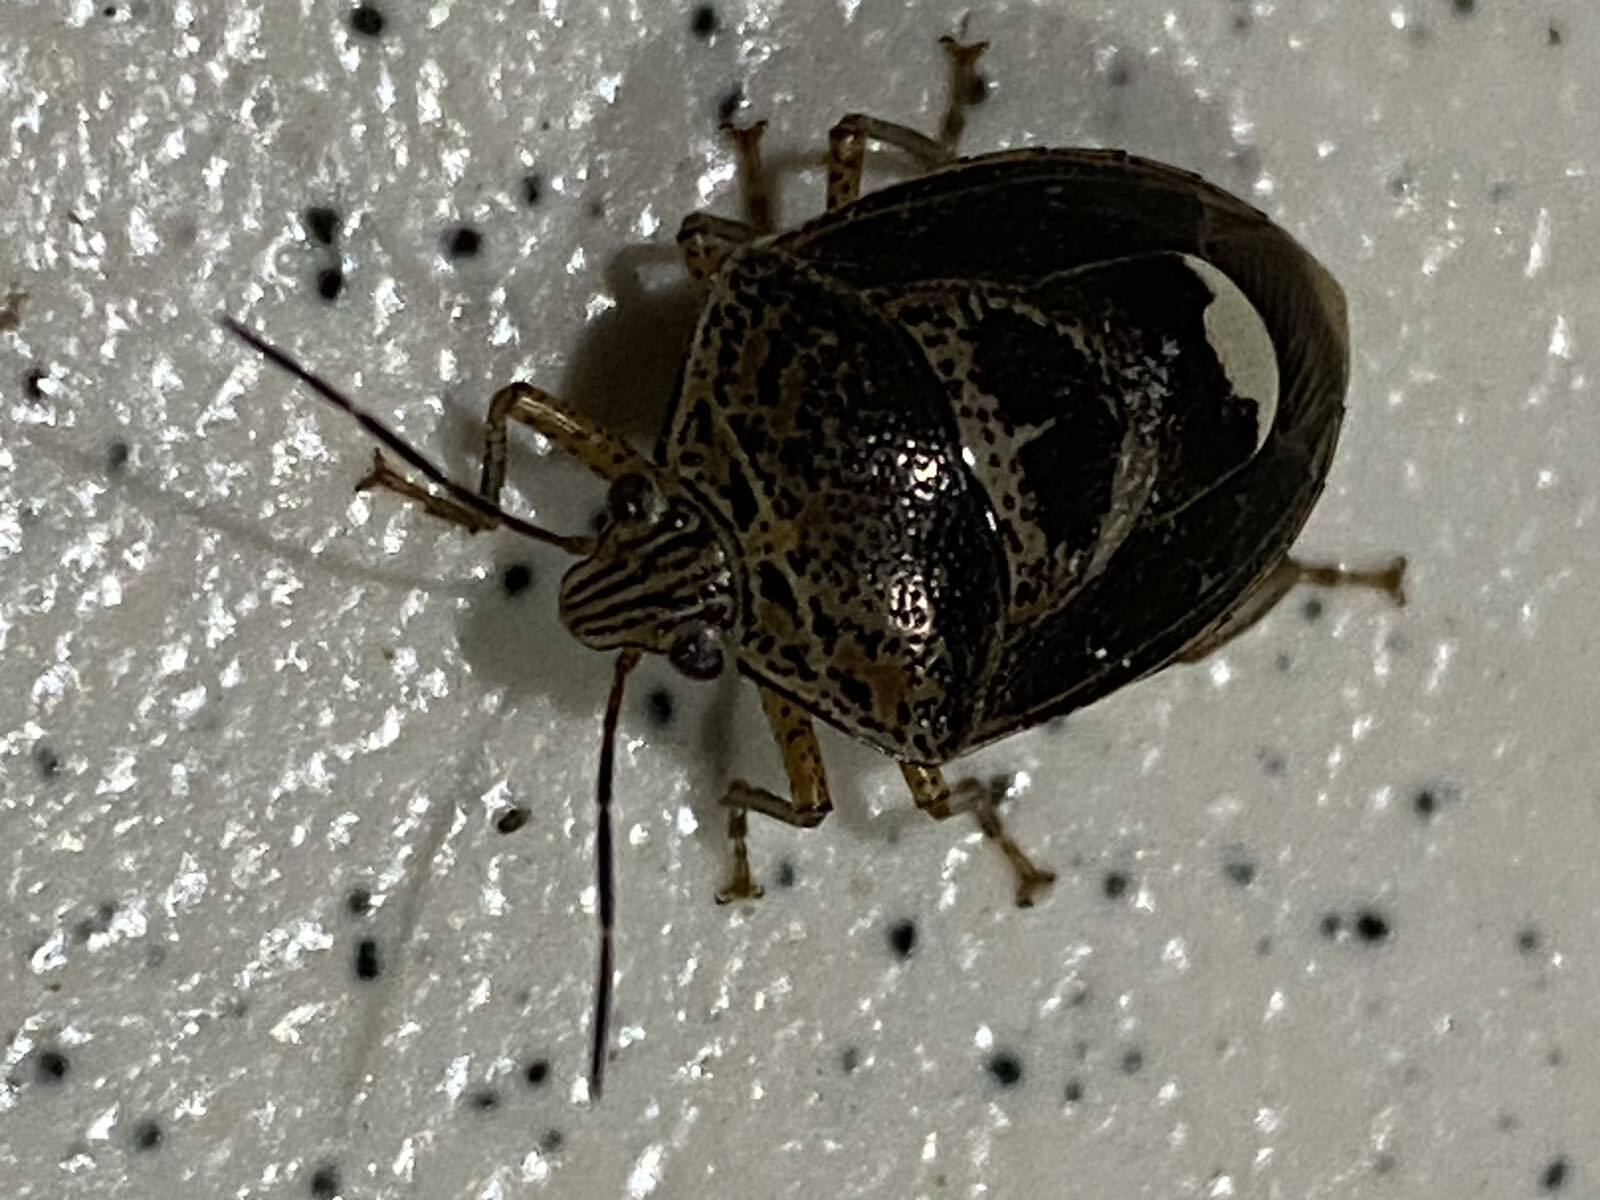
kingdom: Animalia
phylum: Arthropoda
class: Insecta
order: Hemiptera
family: Pentatomidae
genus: Axiagastus
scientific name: Axiagastus rosmarus
